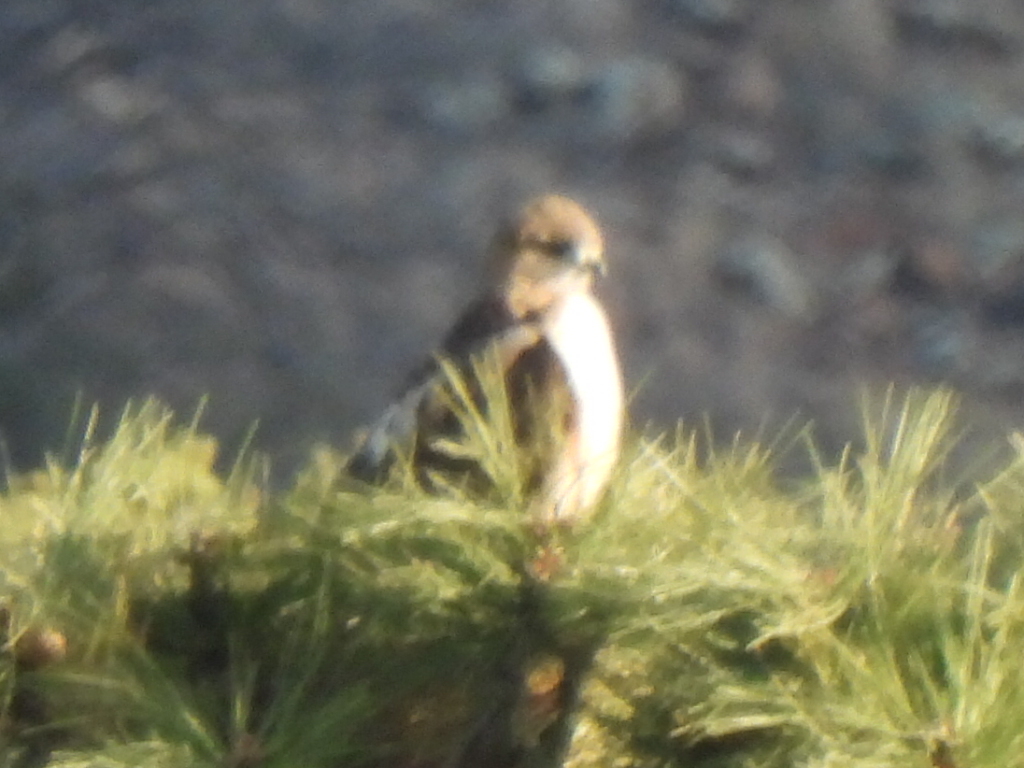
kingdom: Animalia
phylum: Chordata
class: Aves
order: Accipitriformes
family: Accipitridae
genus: Buteo
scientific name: Buteo jamaicensis
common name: Red-tailed hawk
